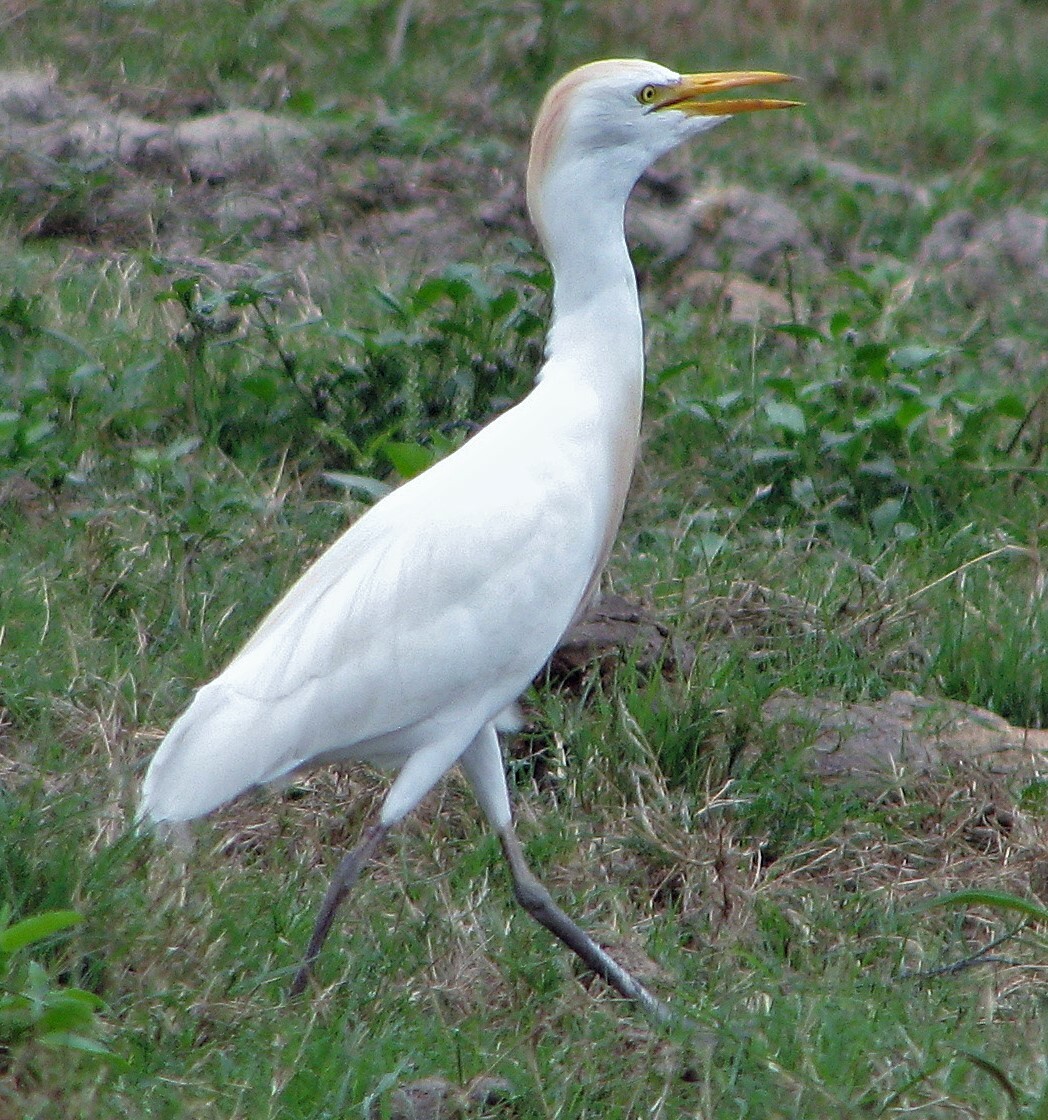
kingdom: Animalia
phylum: Chordata
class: Aves
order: Pelecaniformes
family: Ardeidae
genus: Bubulcus
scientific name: Bubulcus ibis
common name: Cattle egret
